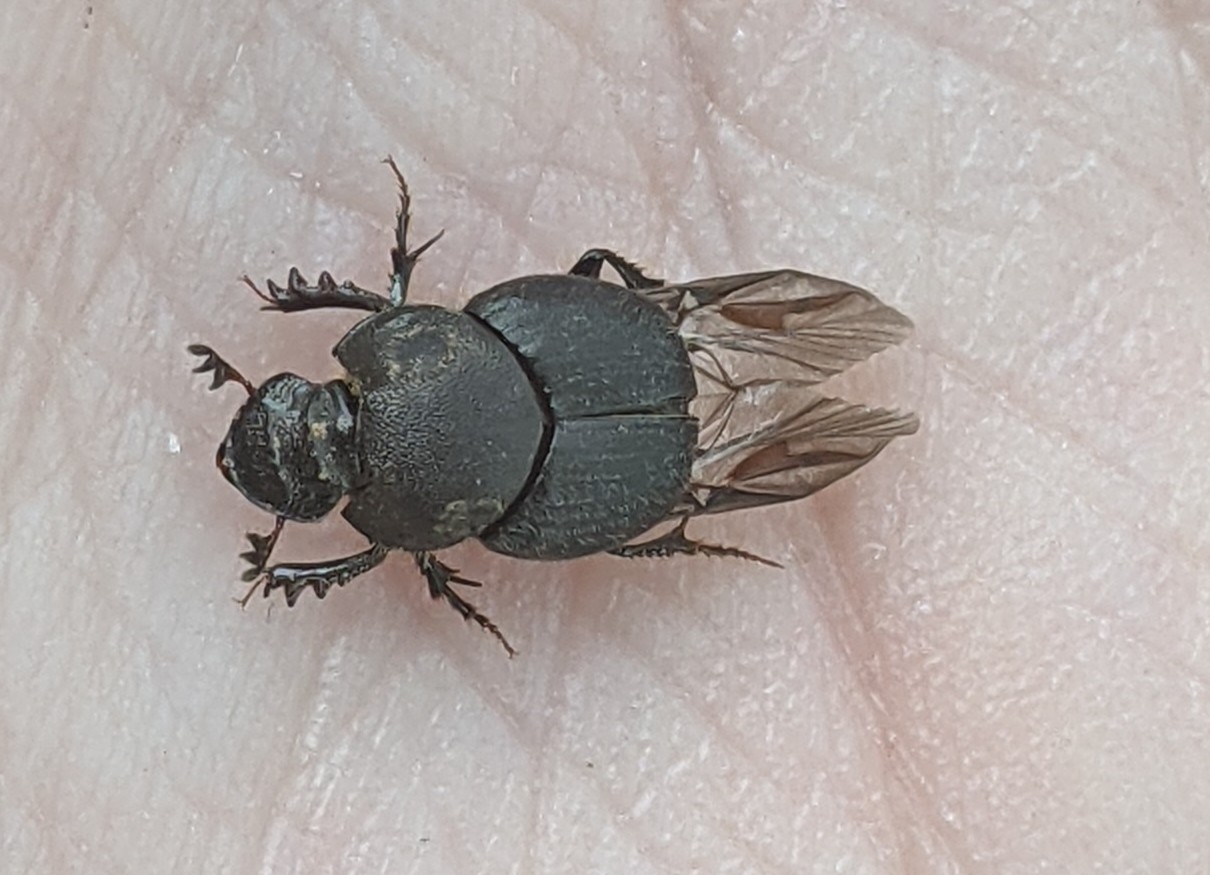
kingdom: Animalia
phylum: Arthropoda
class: Insecta
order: Coleoptera
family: Scarabaeidae
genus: Onthophagus
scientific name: Onthophagus hecate
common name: Scooped scarab
